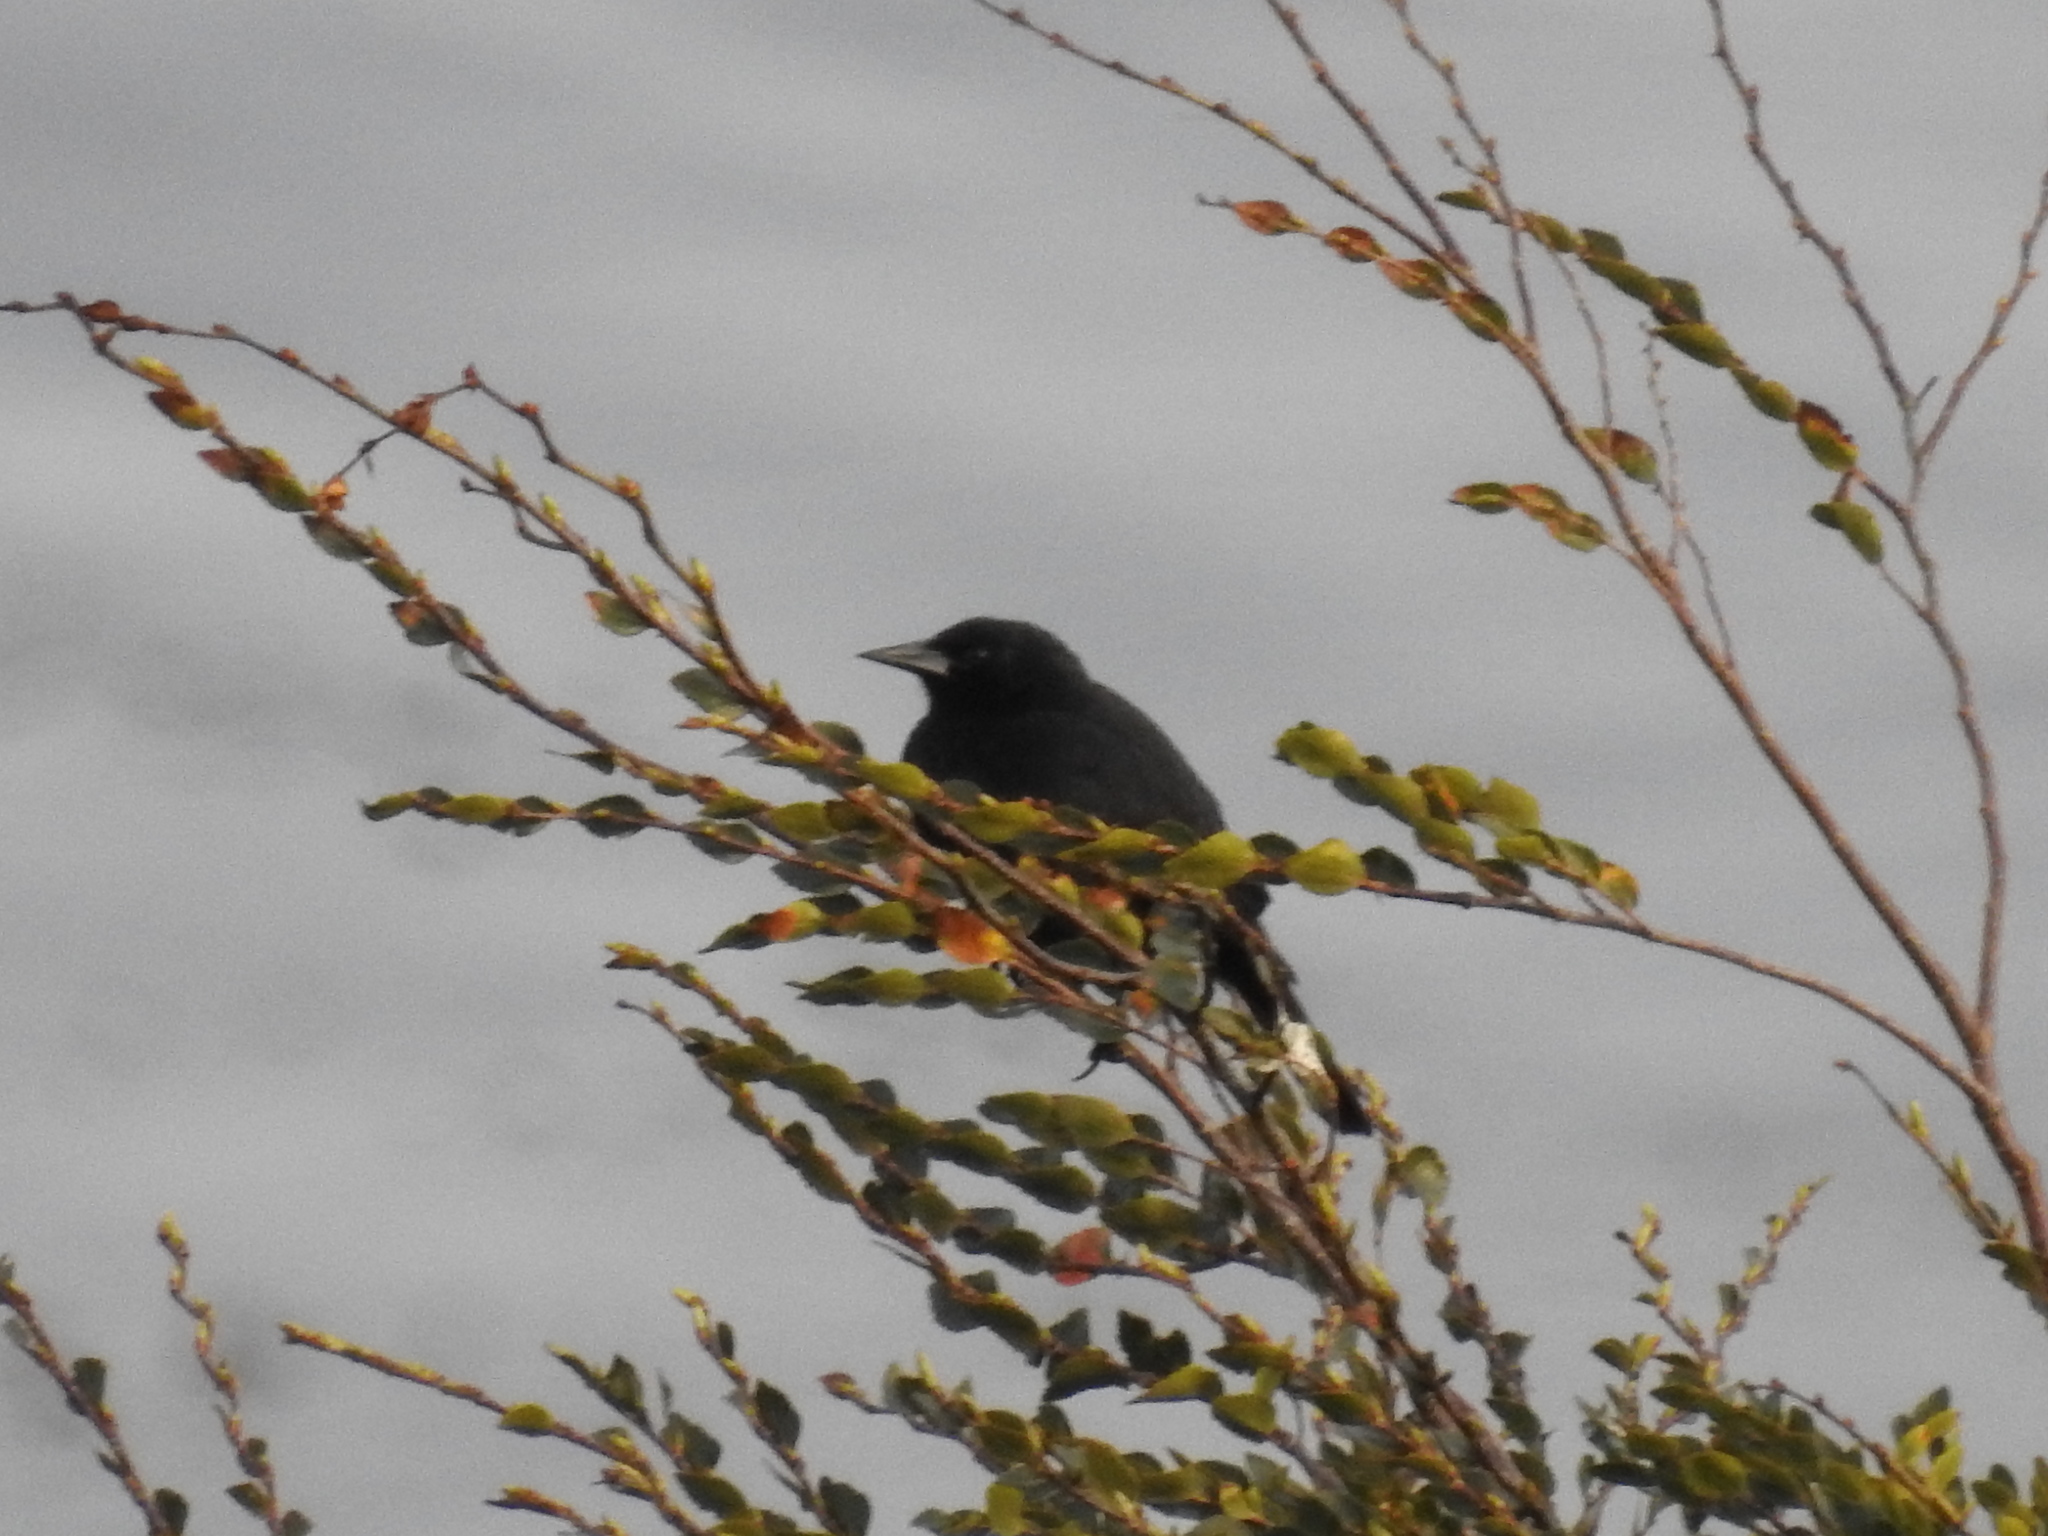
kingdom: Animalia
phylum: Chordata
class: Aves
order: Passeriformes
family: Icteridae
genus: Curaeus
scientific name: Curaeus curaeus
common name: Austral blackbird
